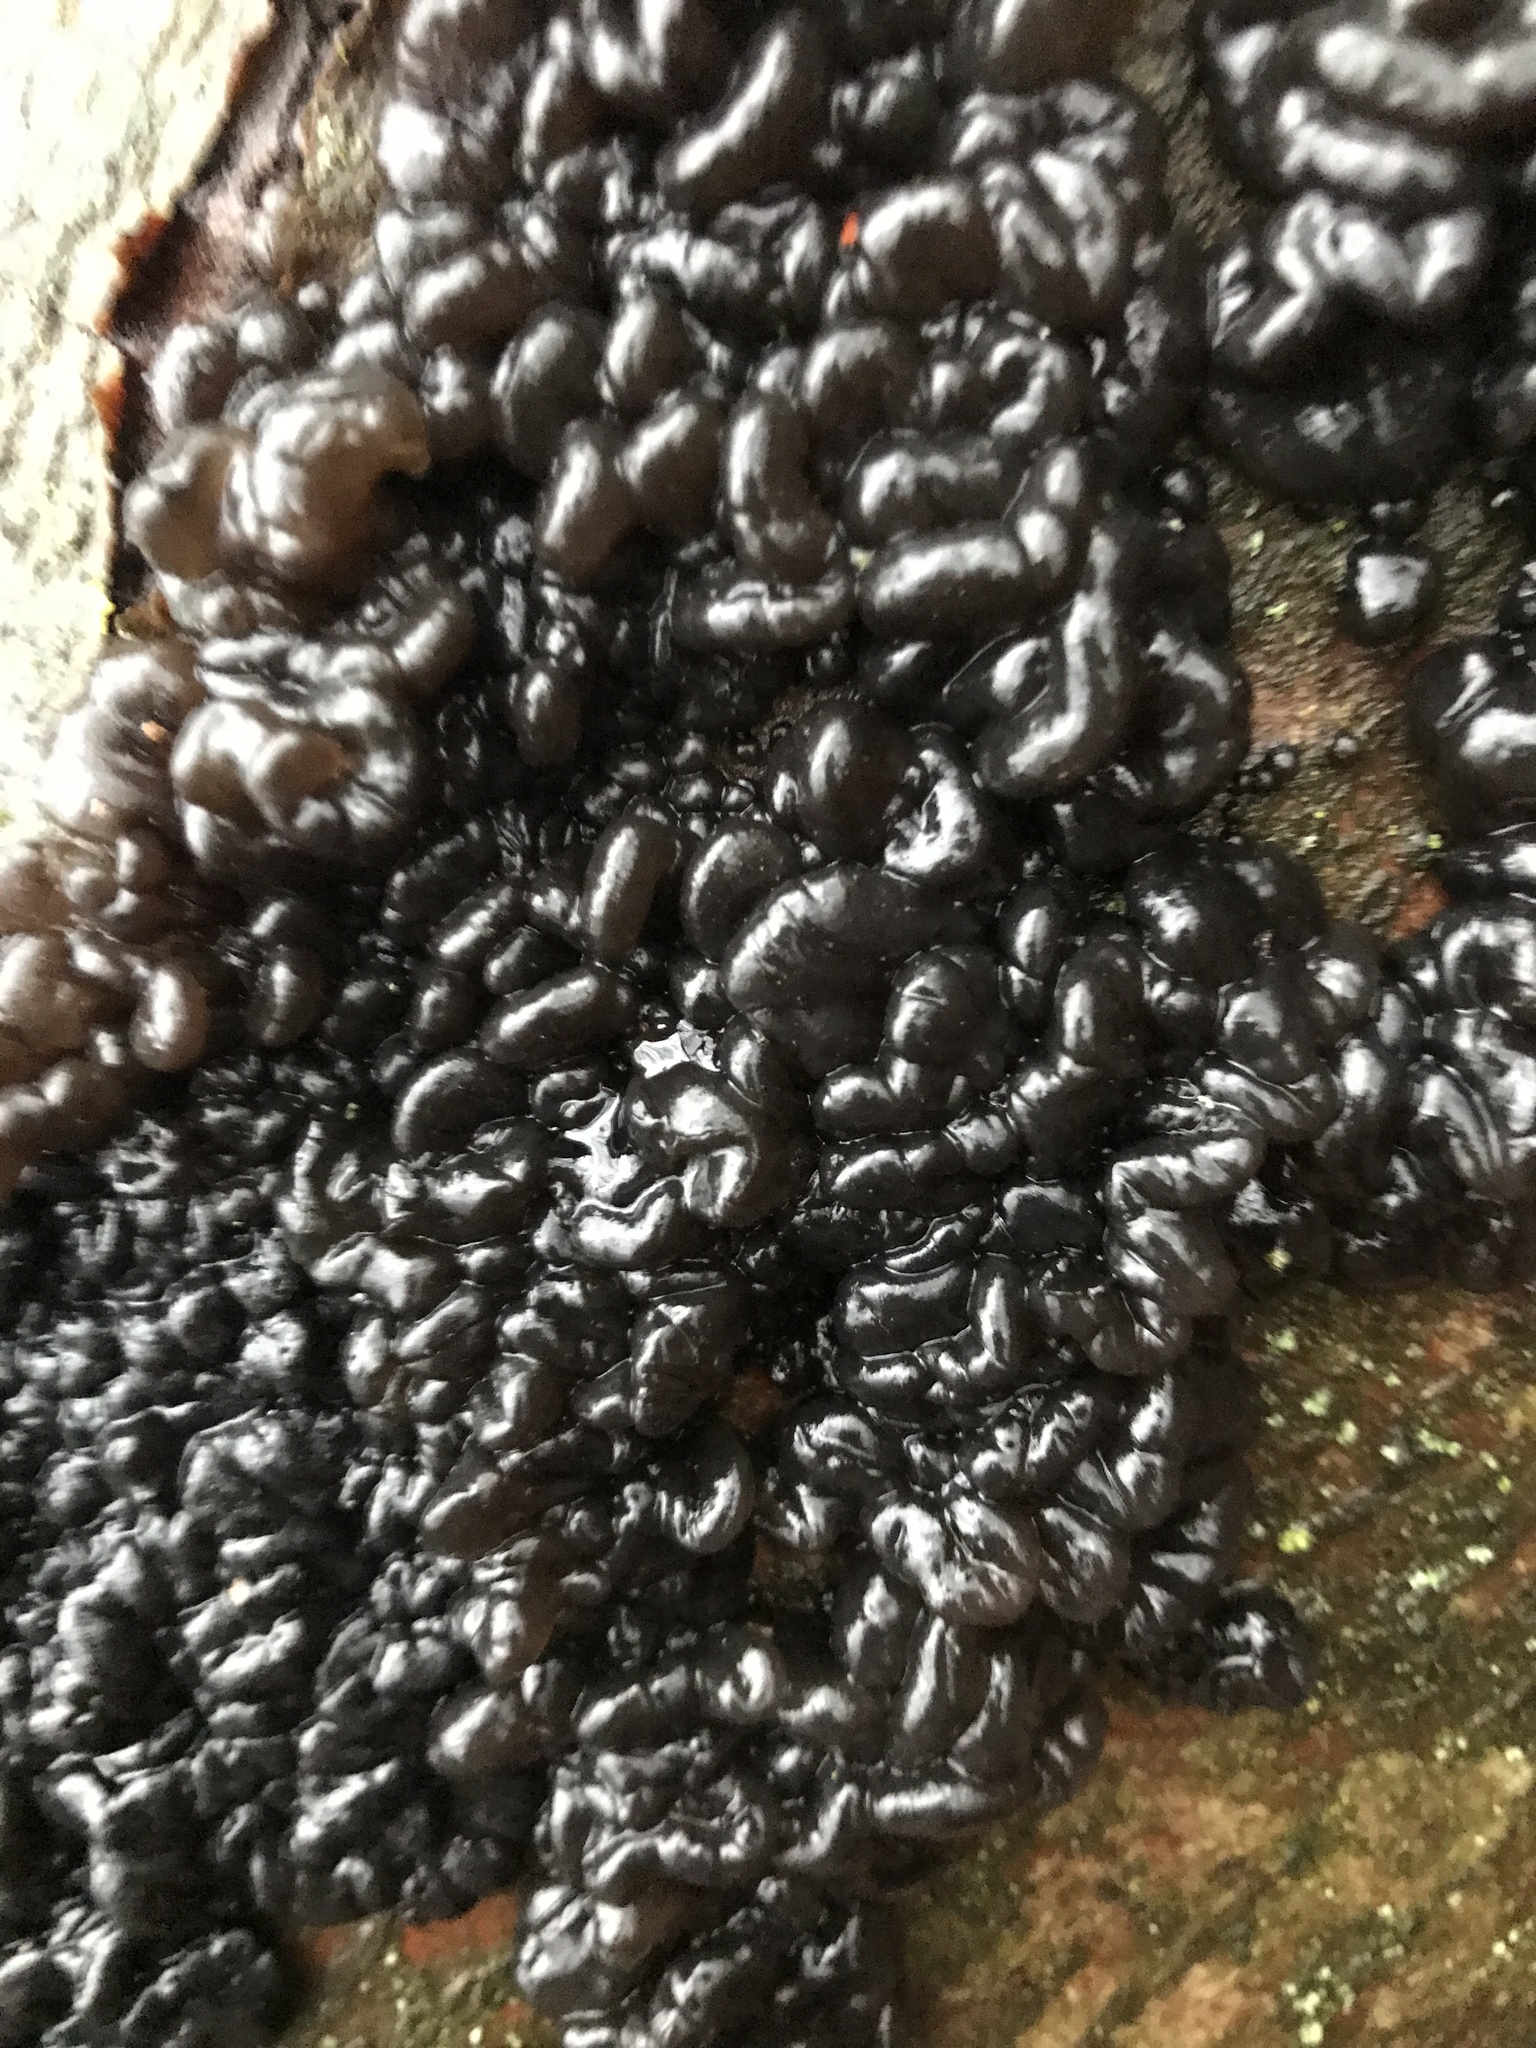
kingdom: Fungi
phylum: Basidiomycota
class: Agaricomycetes
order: Auriculariales
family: Auriculariaceae
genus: Exidia
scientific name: Exidia glandulosa
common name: Witches' butter
